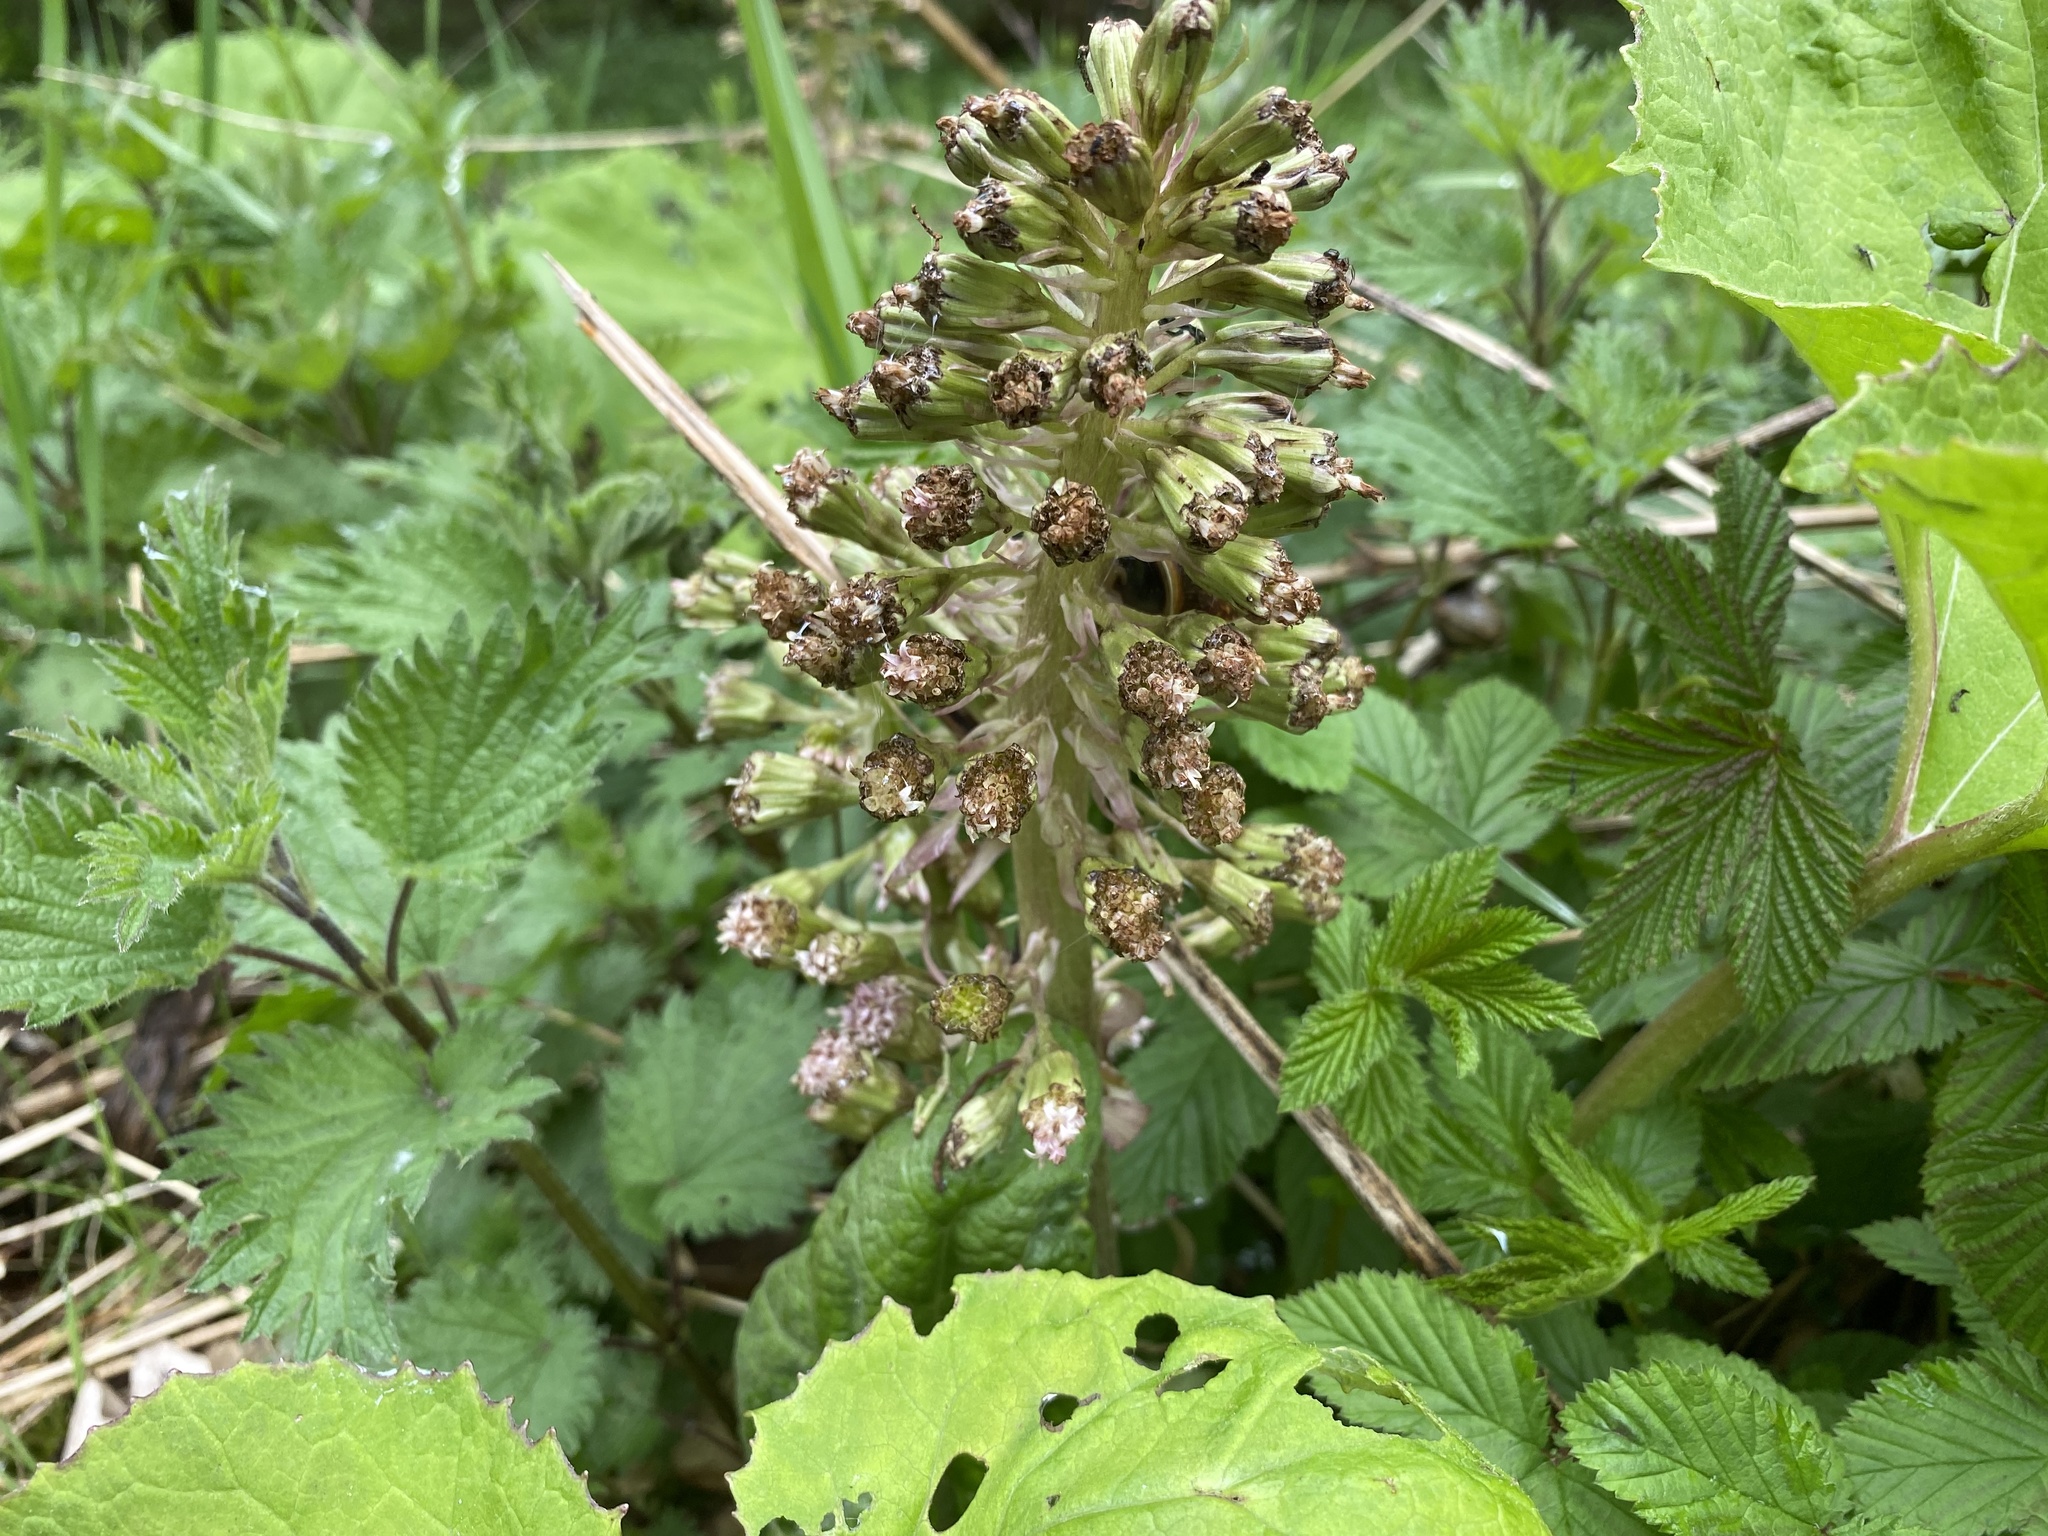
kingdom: Plantae
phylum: Tracheophyta
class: Magnoliopsida
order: Asterales
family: Asteraceae
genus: Petasites
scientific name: Petasites hybridus
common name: Butterbur
